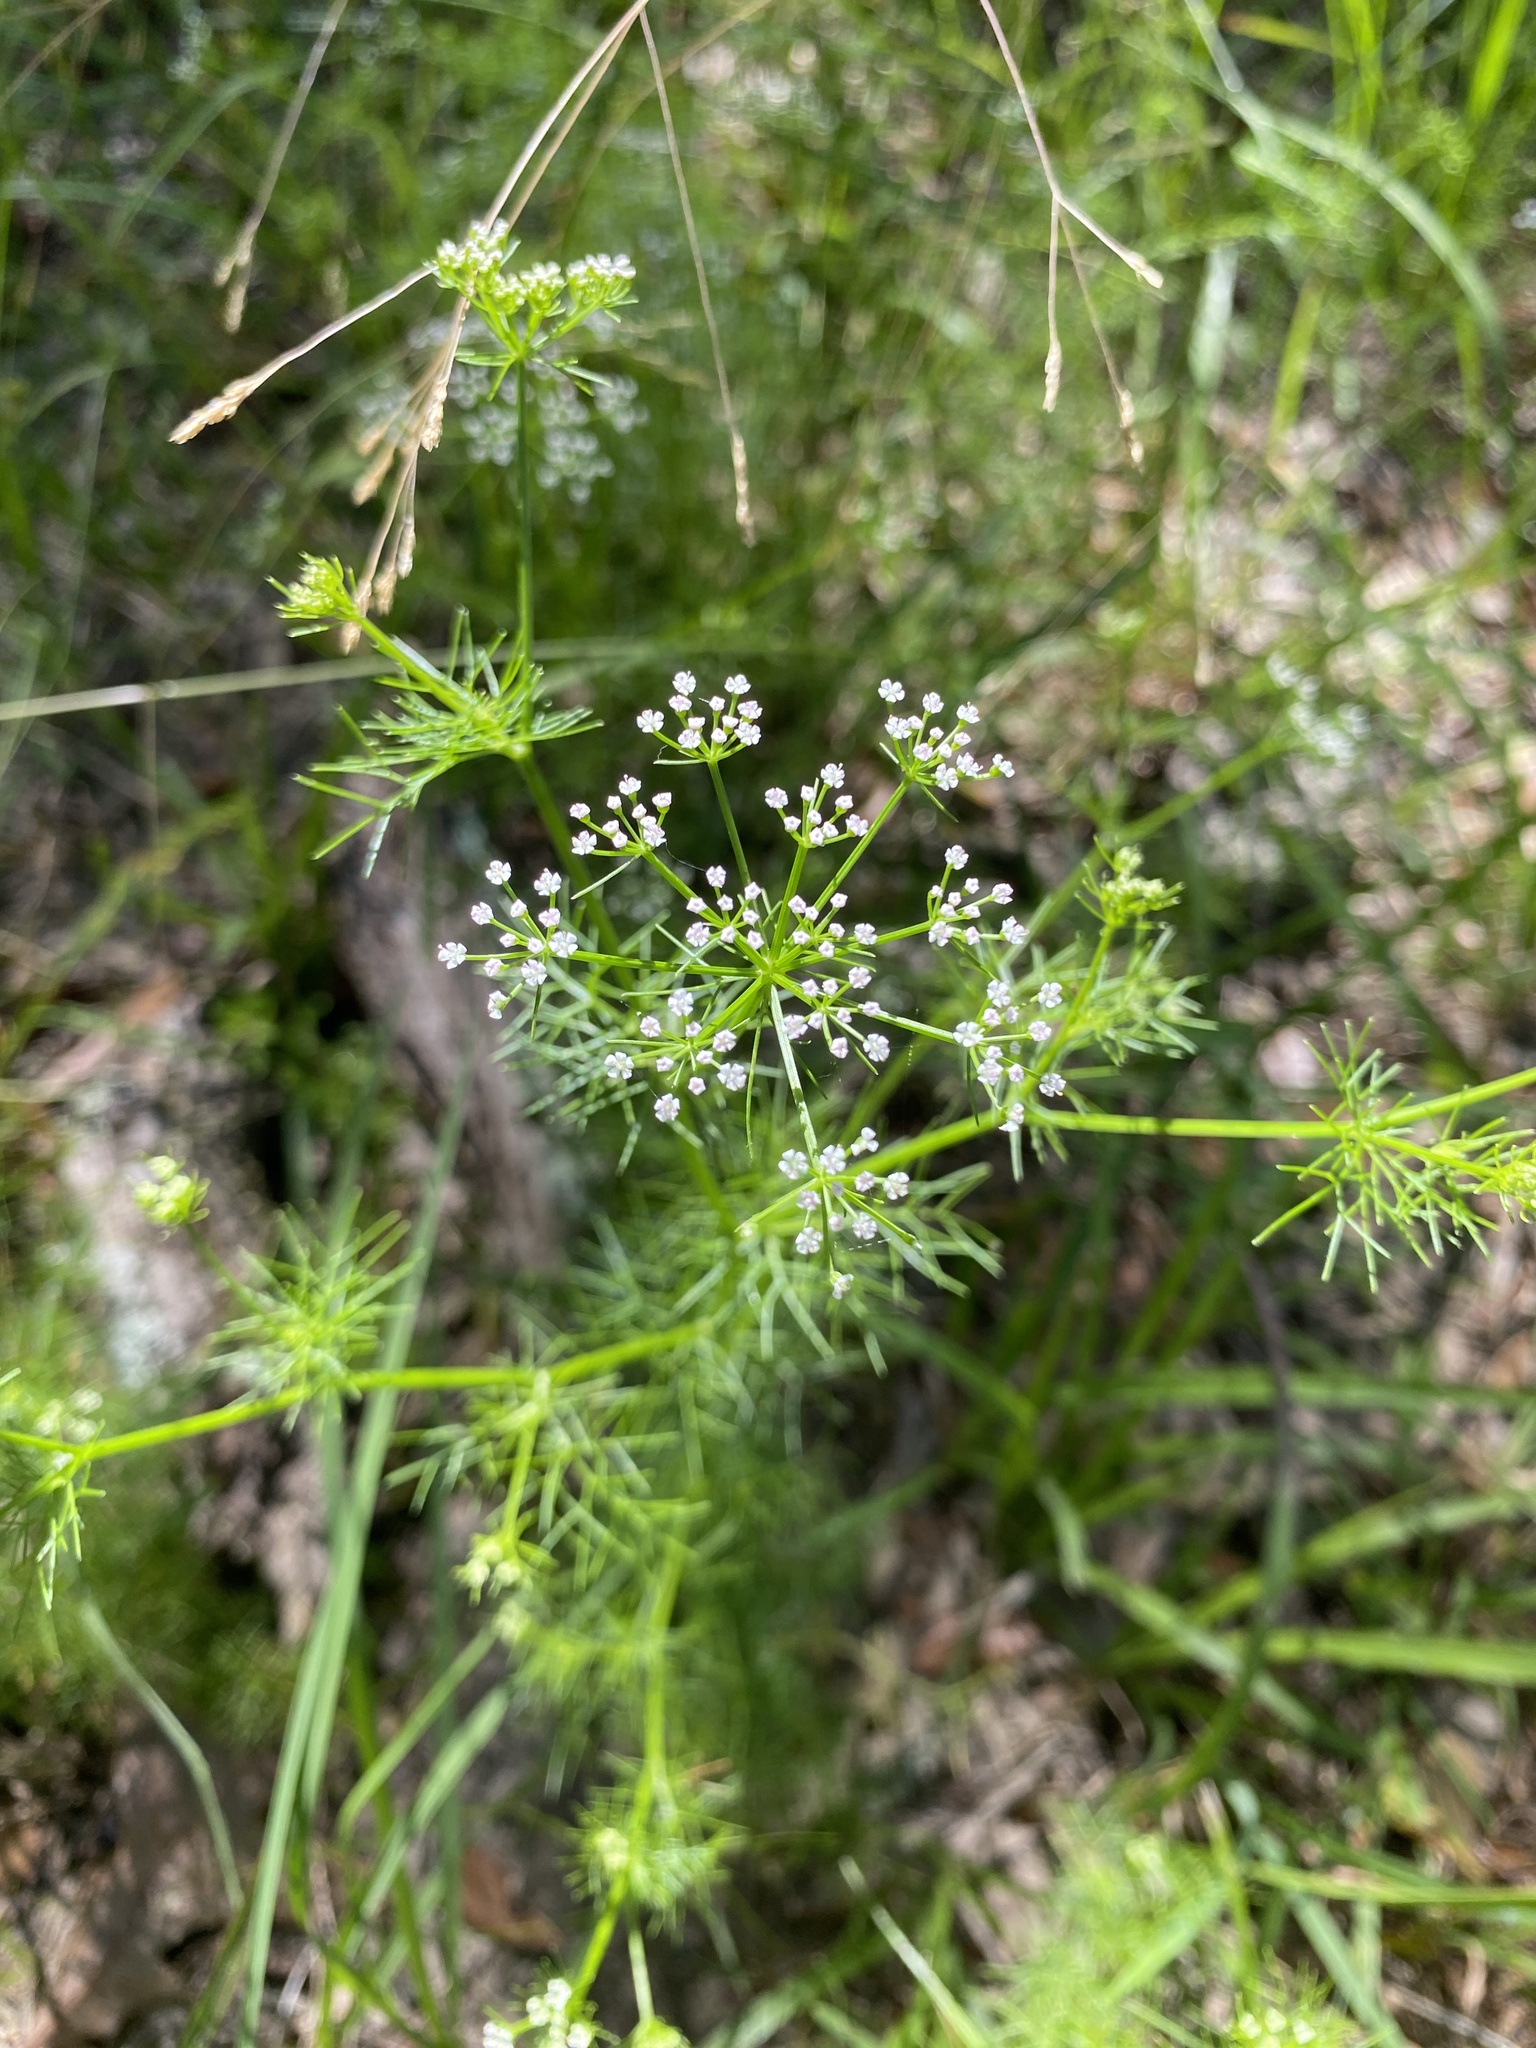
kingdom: Plantae
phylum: Tracheophyta
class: Magnoliopsida
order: Apiales
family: Apiaceae
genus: Ptilimnium
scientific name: Ptilimnium capillaceum
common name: Herbwilliam
